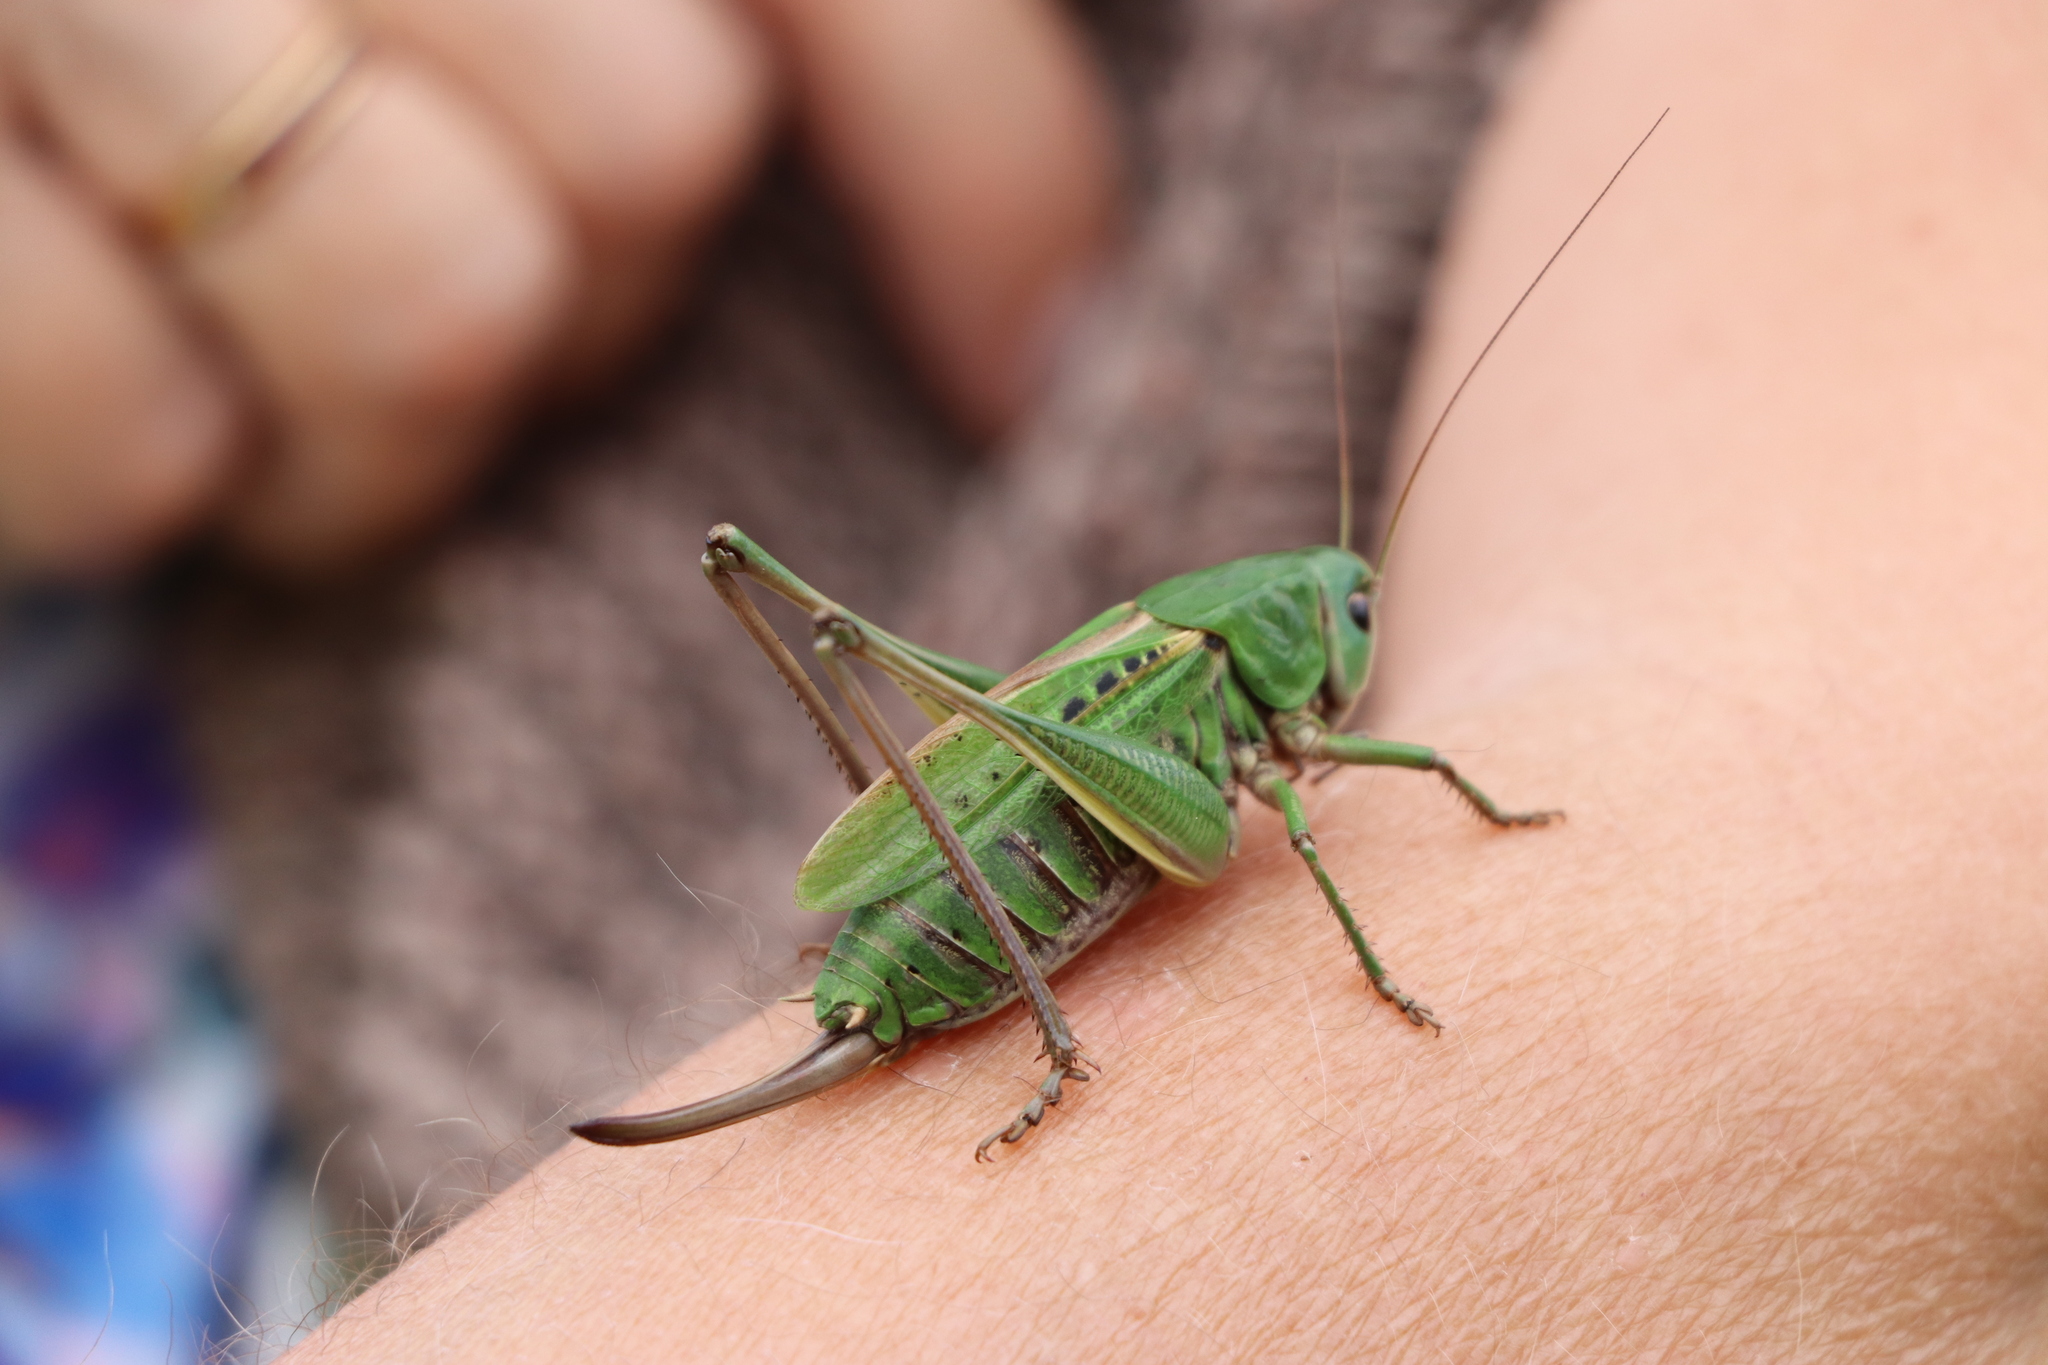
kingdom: Animalia
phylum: Arthropoda
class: Insecta
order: Orthoptera
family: Tettigoniidae
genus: Decticus
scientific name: Decticus verrucivorus
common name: Wart-biter
